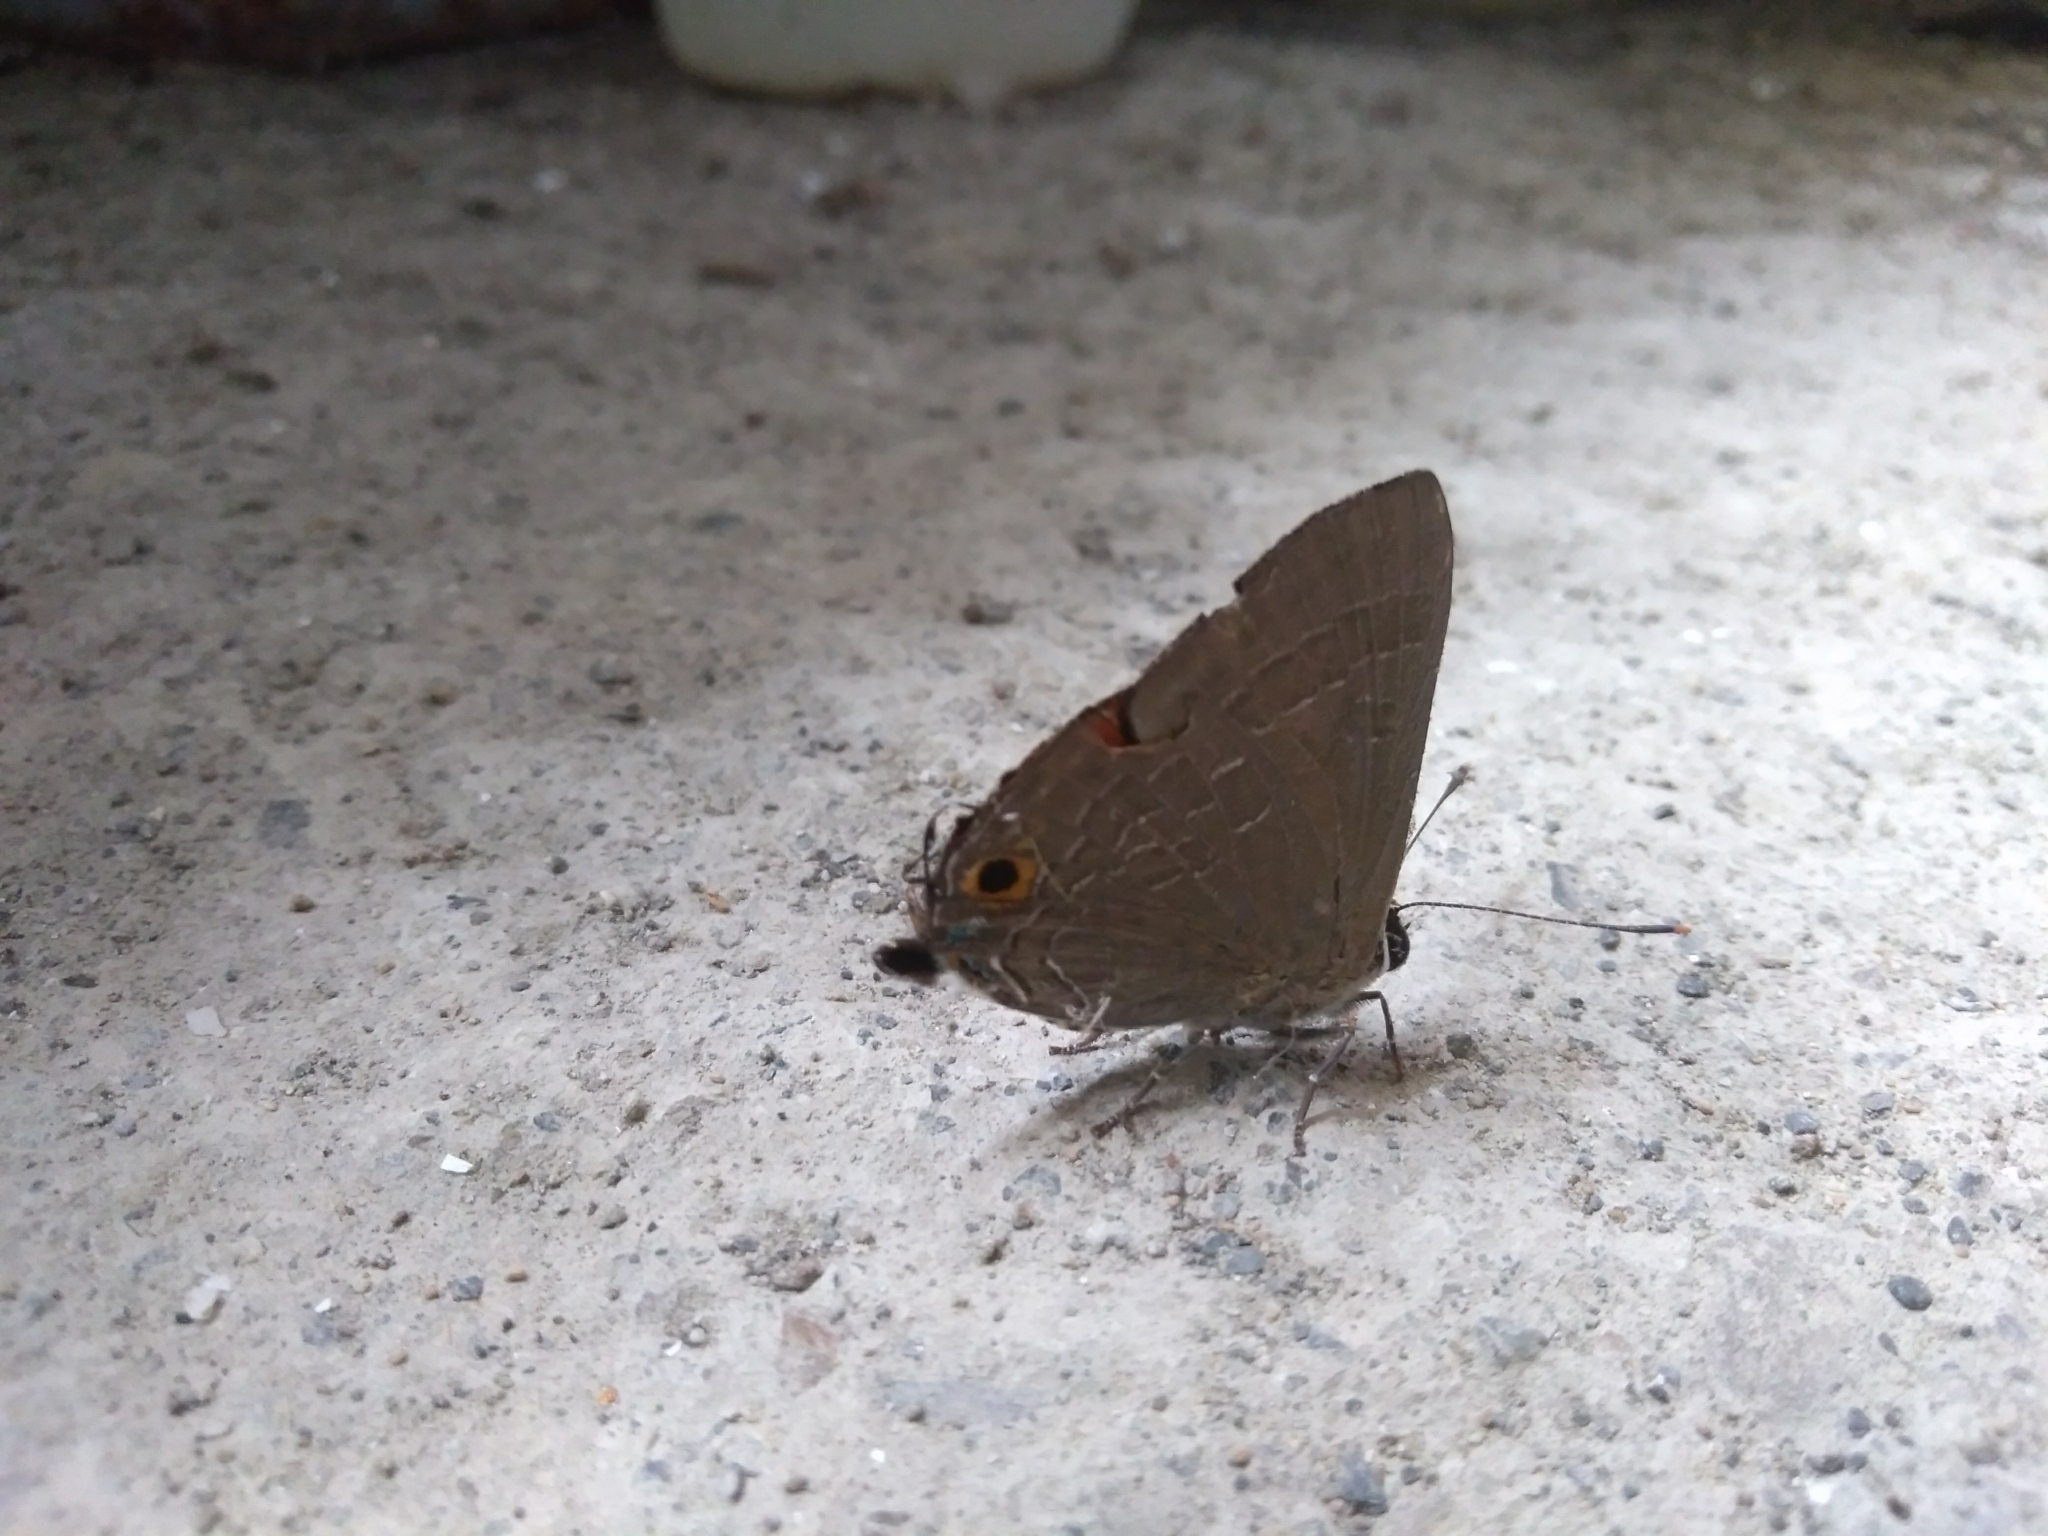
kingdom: Animalia
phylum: Arthropoda
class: Insecta
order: Lepidoptera
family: Lycaenidae
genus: Deudorix
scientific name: Deudorix epijarbas
